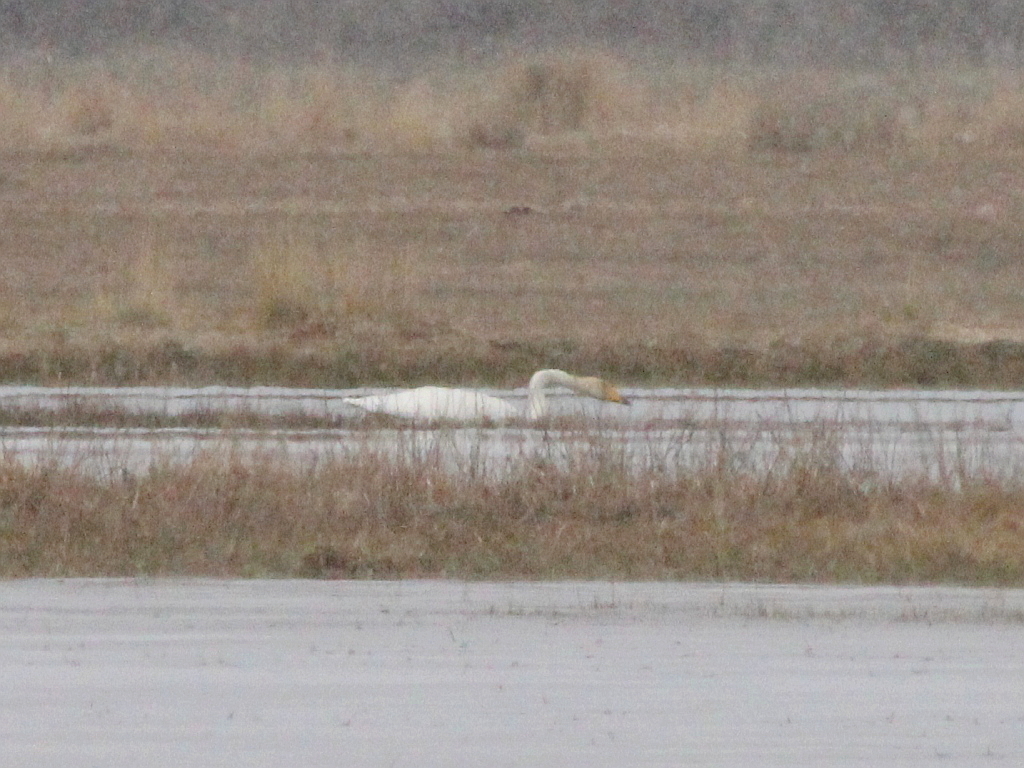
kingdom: Animalia
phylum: Chordata
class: Aves
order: Anseriformes
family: Anatidae
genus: Cygnus
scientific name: Cygnus cygnus
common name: Whooper swan
